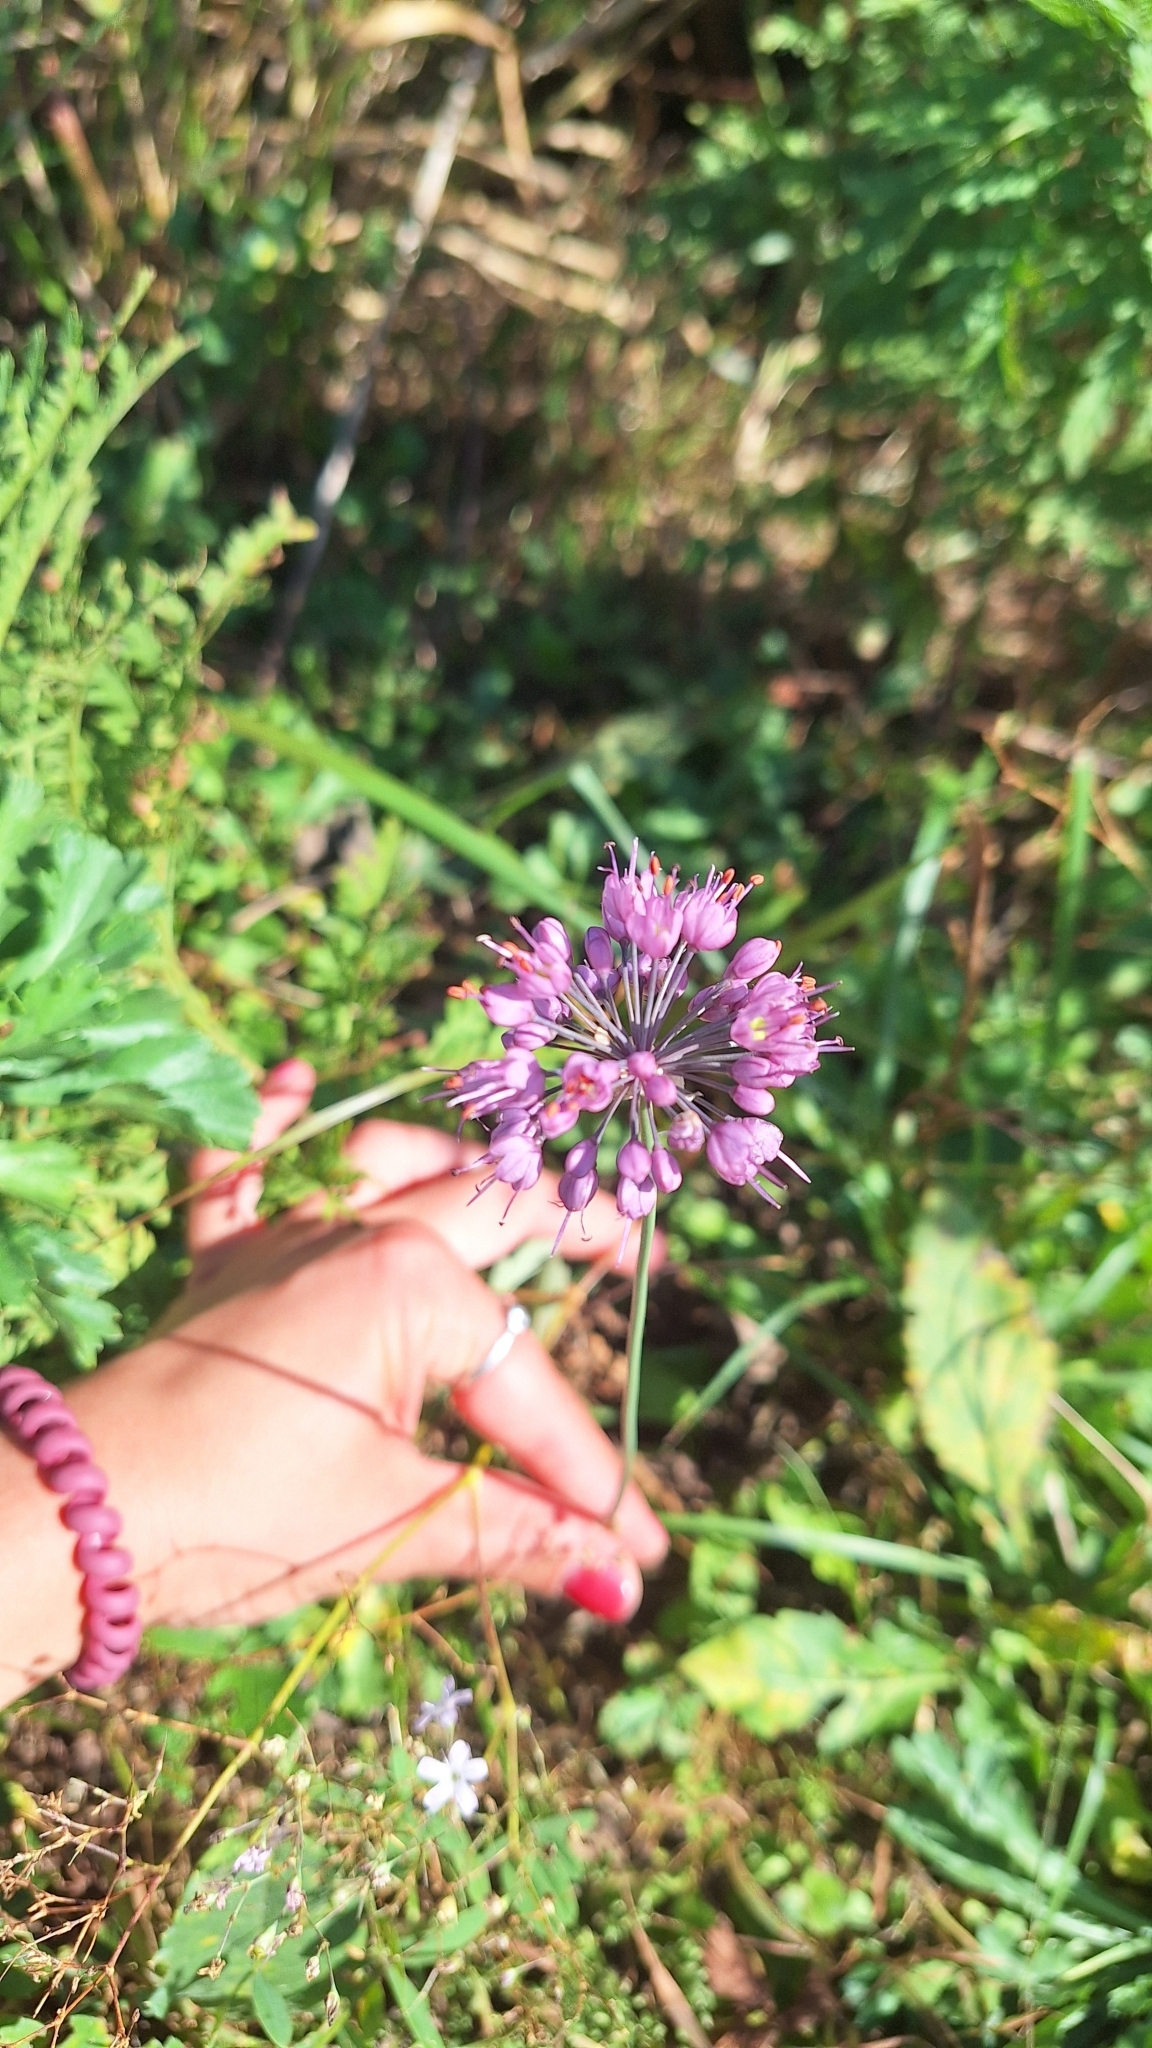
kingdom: Plantae
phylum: Tracheophyta
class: Liliopsida
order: Asparagales
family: Amaryllidaceae
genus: Allium
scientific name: Allium sacculiferum
